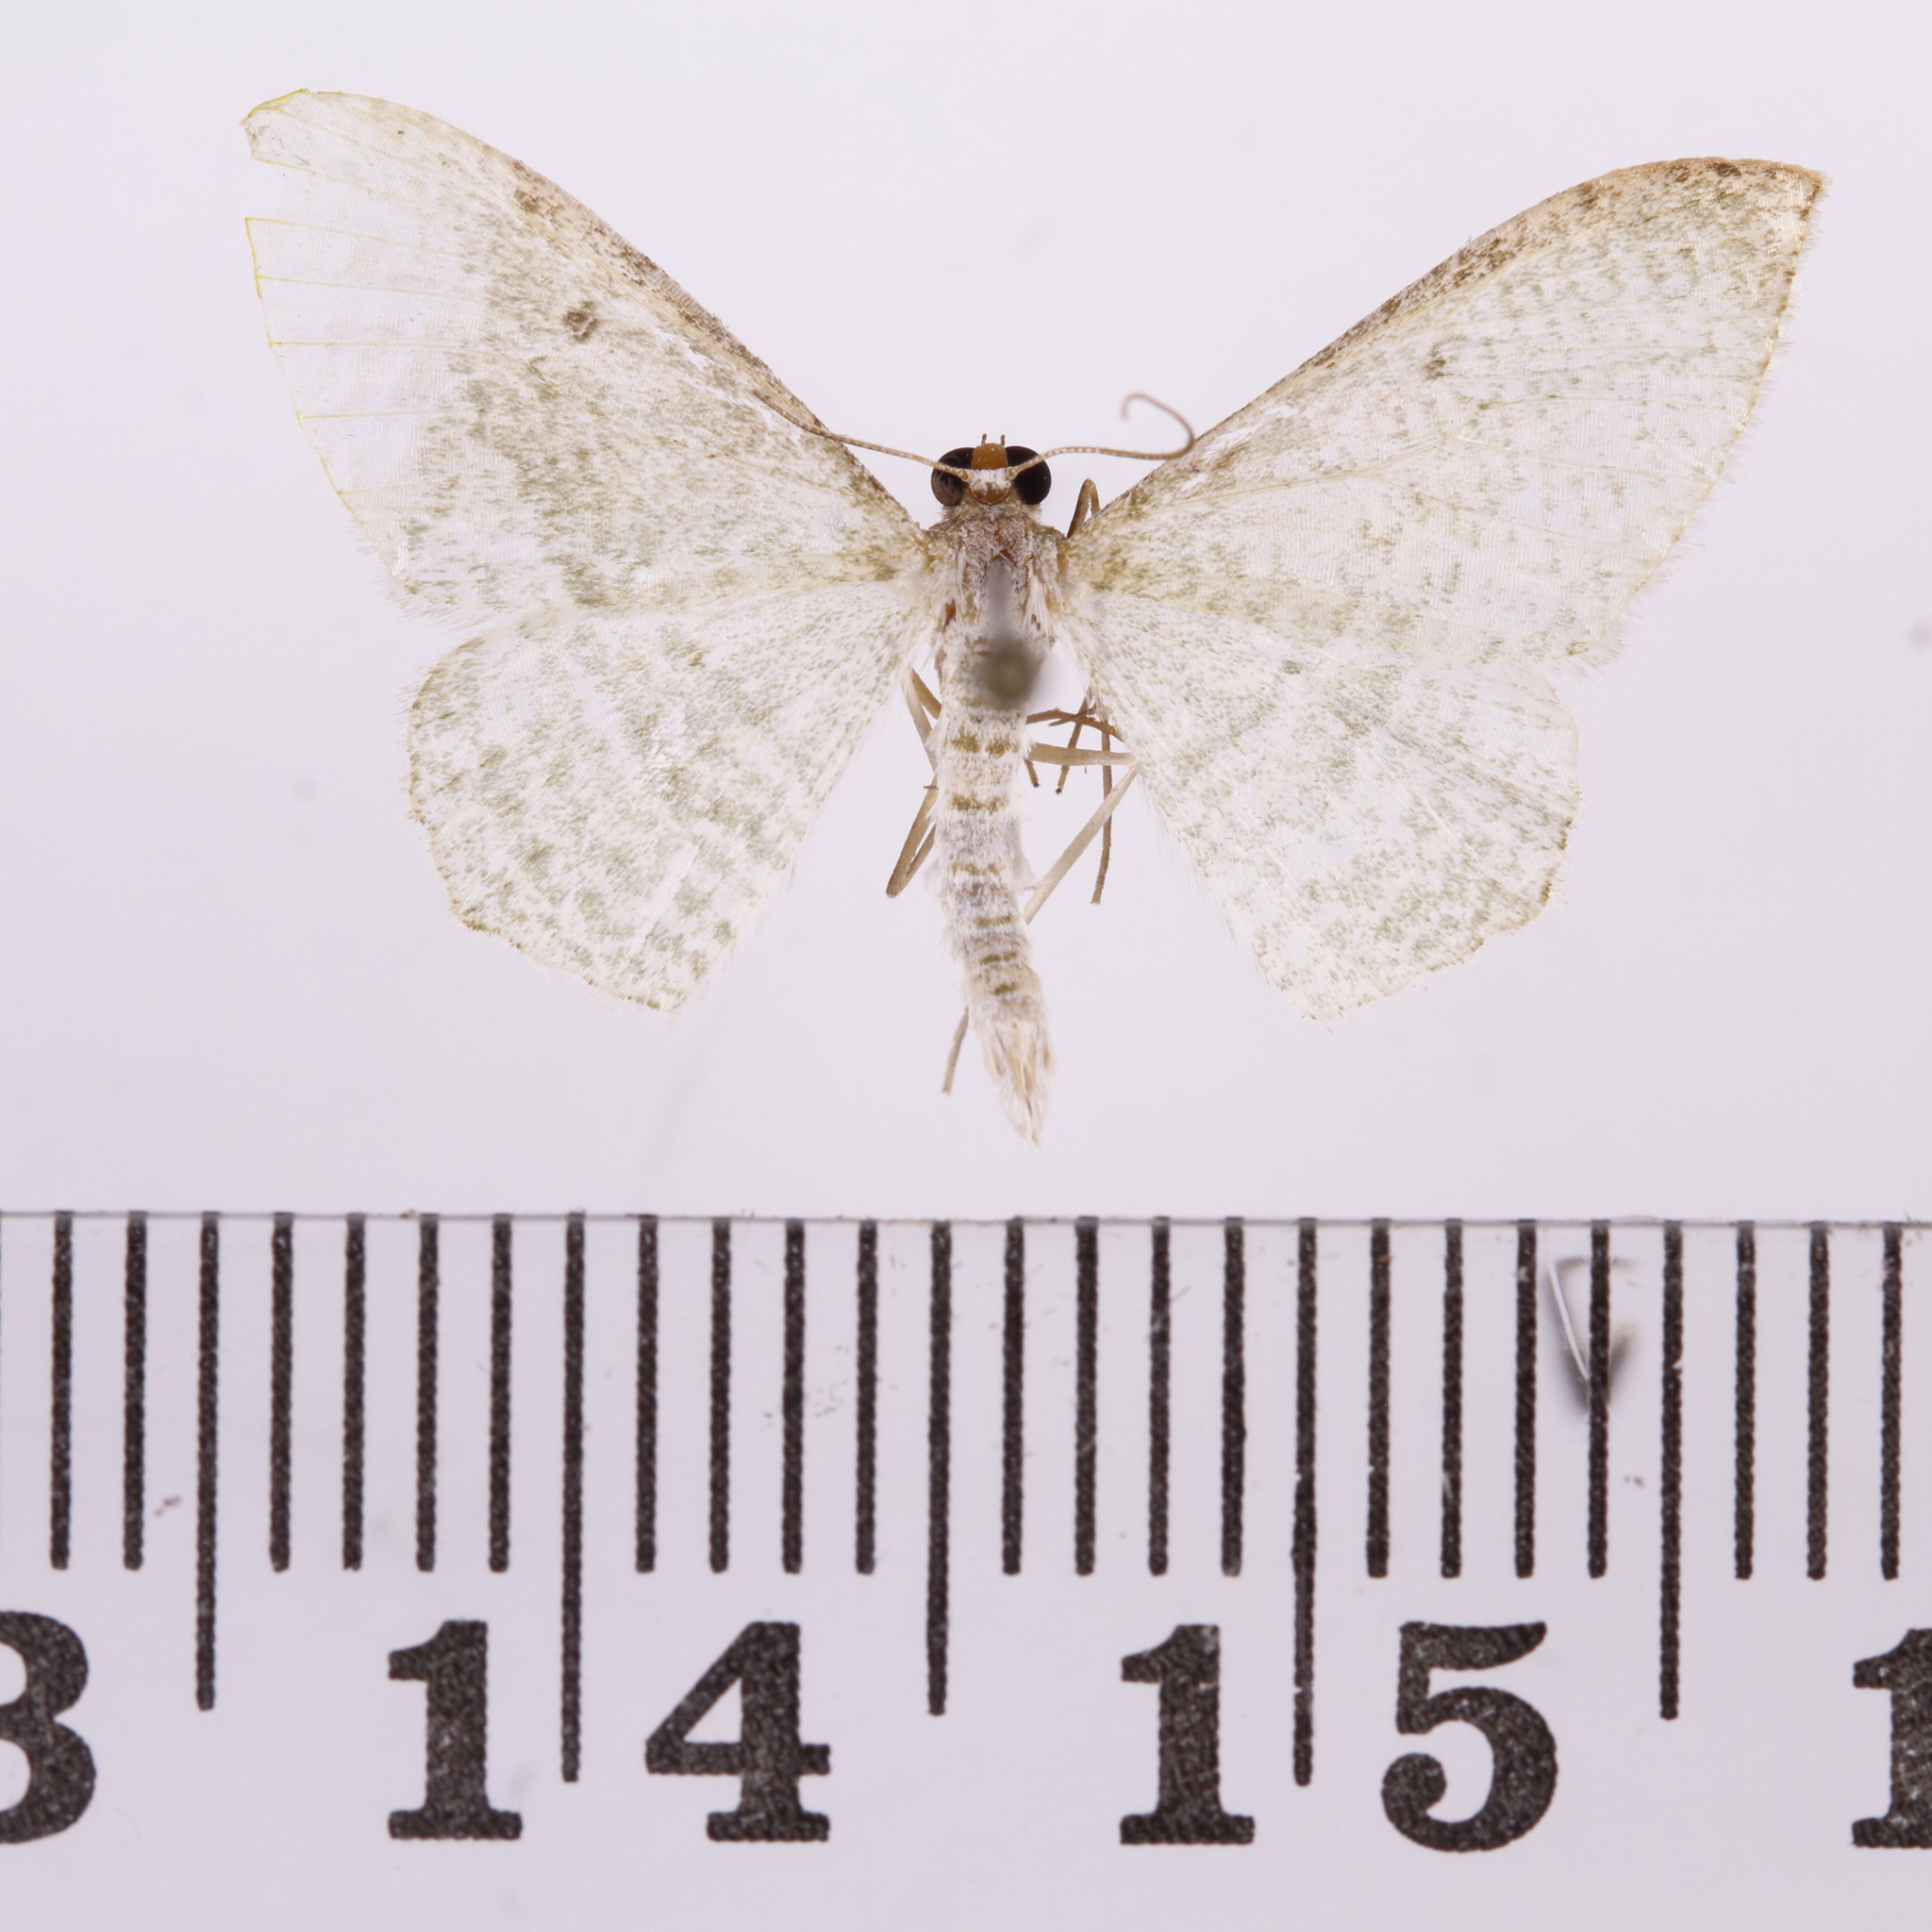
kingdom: Animalia
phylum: Arthropoda
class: Insecta
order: Lepidoptera
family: Geometridae
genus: Poecilasthena
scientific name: Poecilasthena pulchraria
